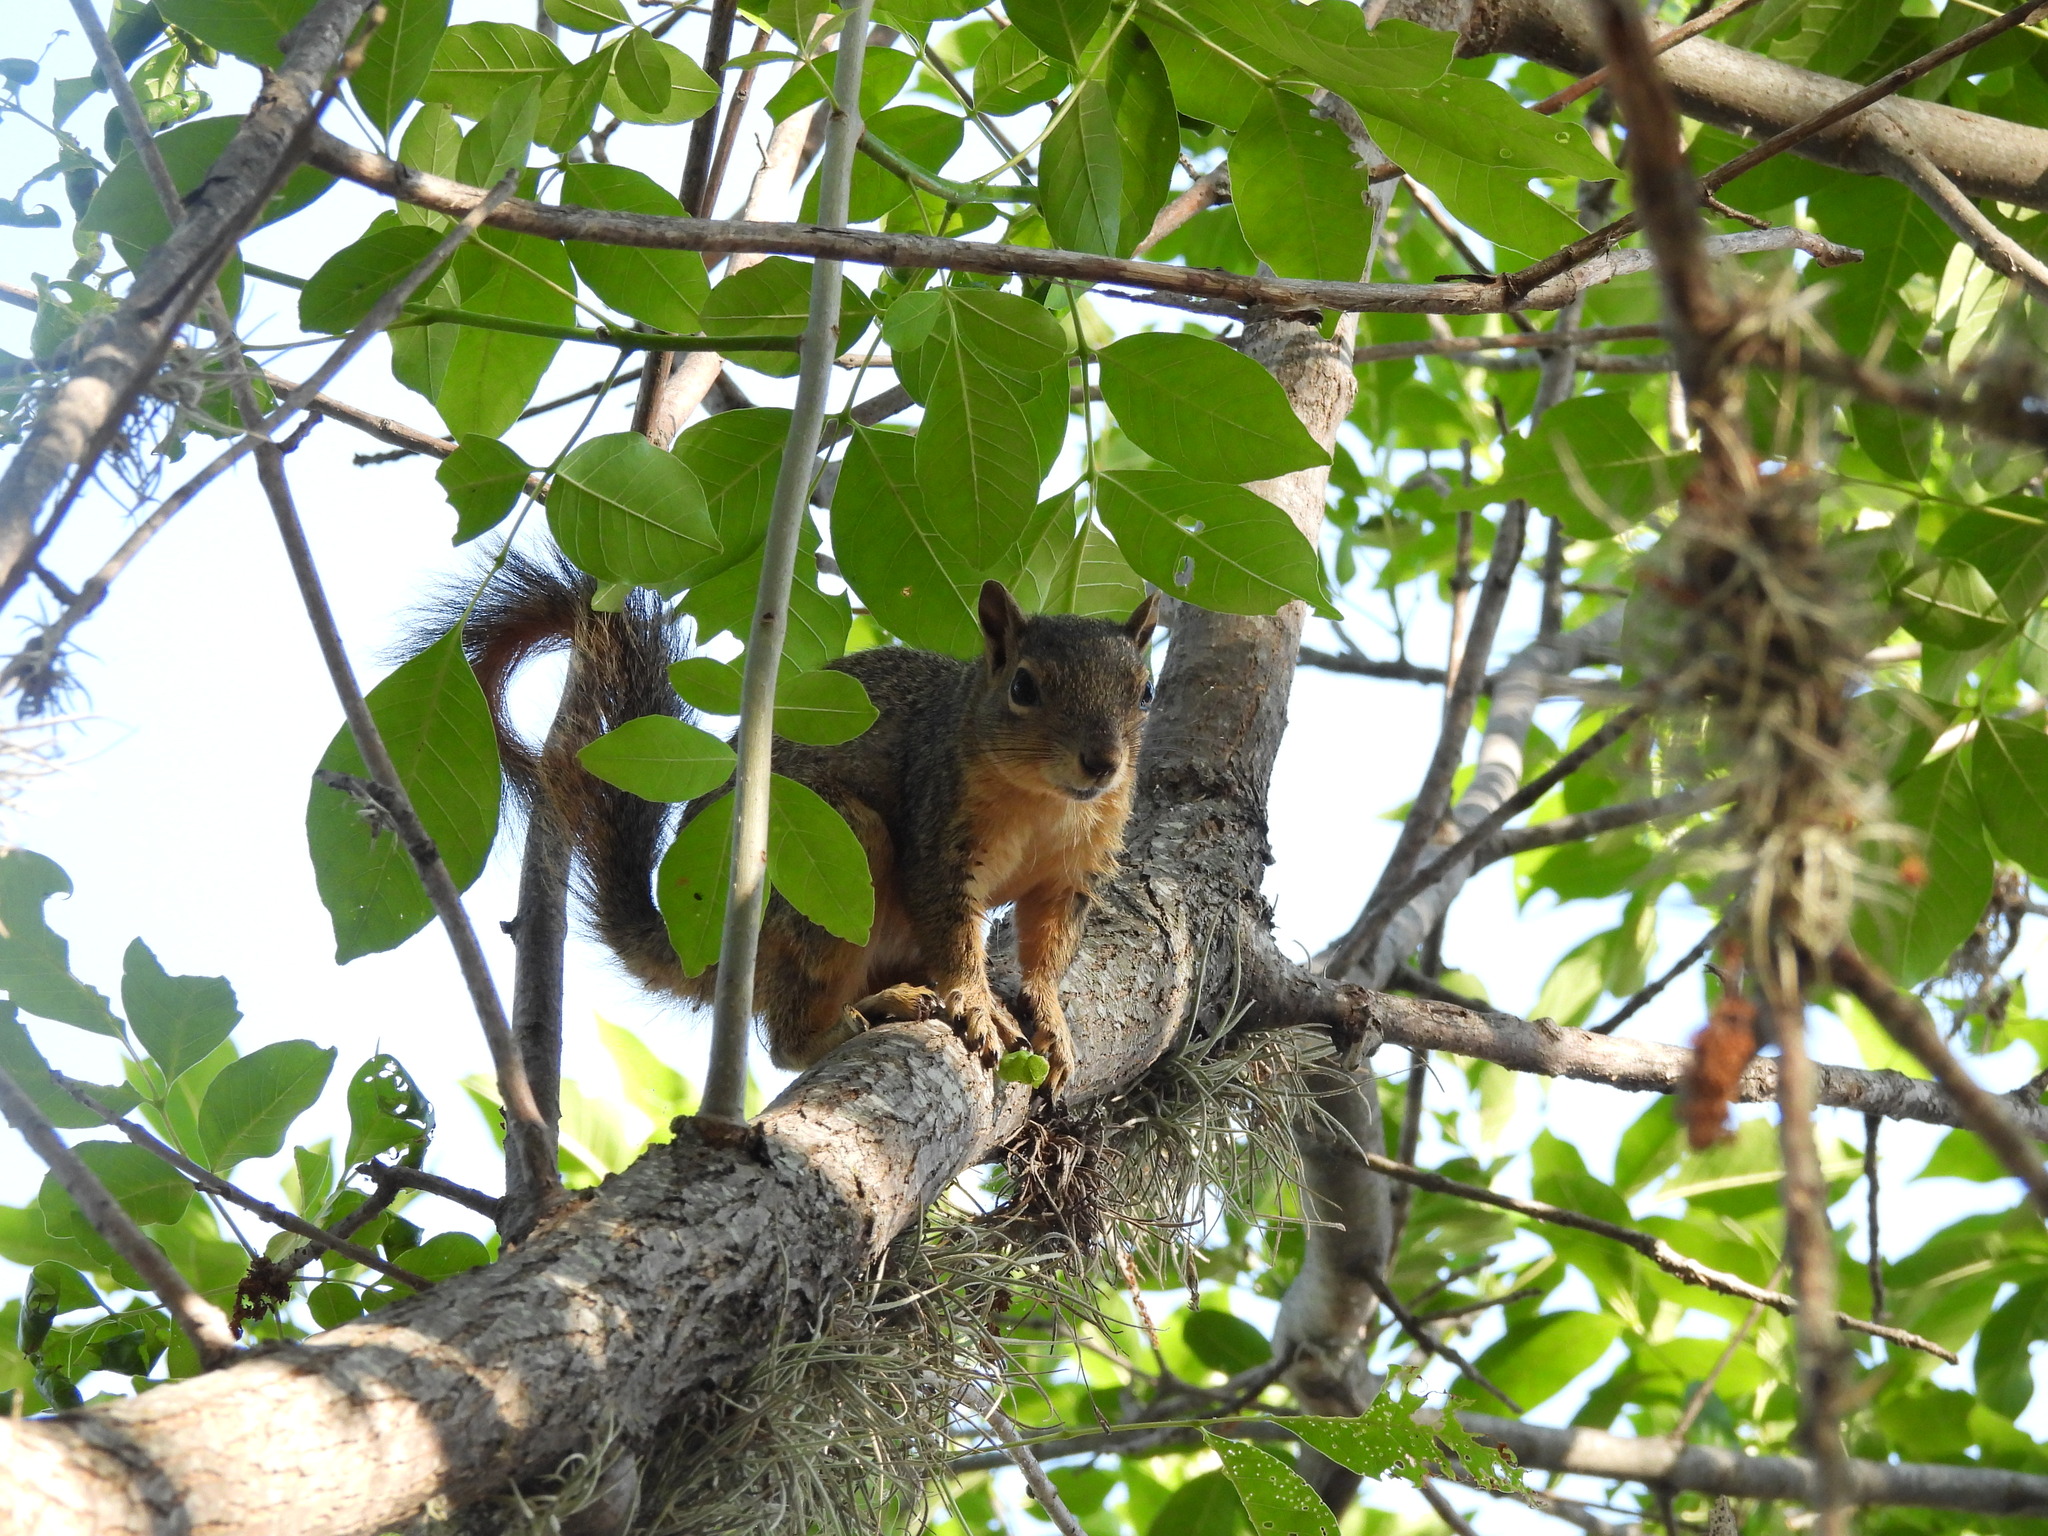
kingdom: Animalia
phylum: Chordata
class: Mammalia
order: Rodentia
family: Sciuridae
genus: Sciurus
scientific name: Sciurus niger
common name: Fox squirrel
